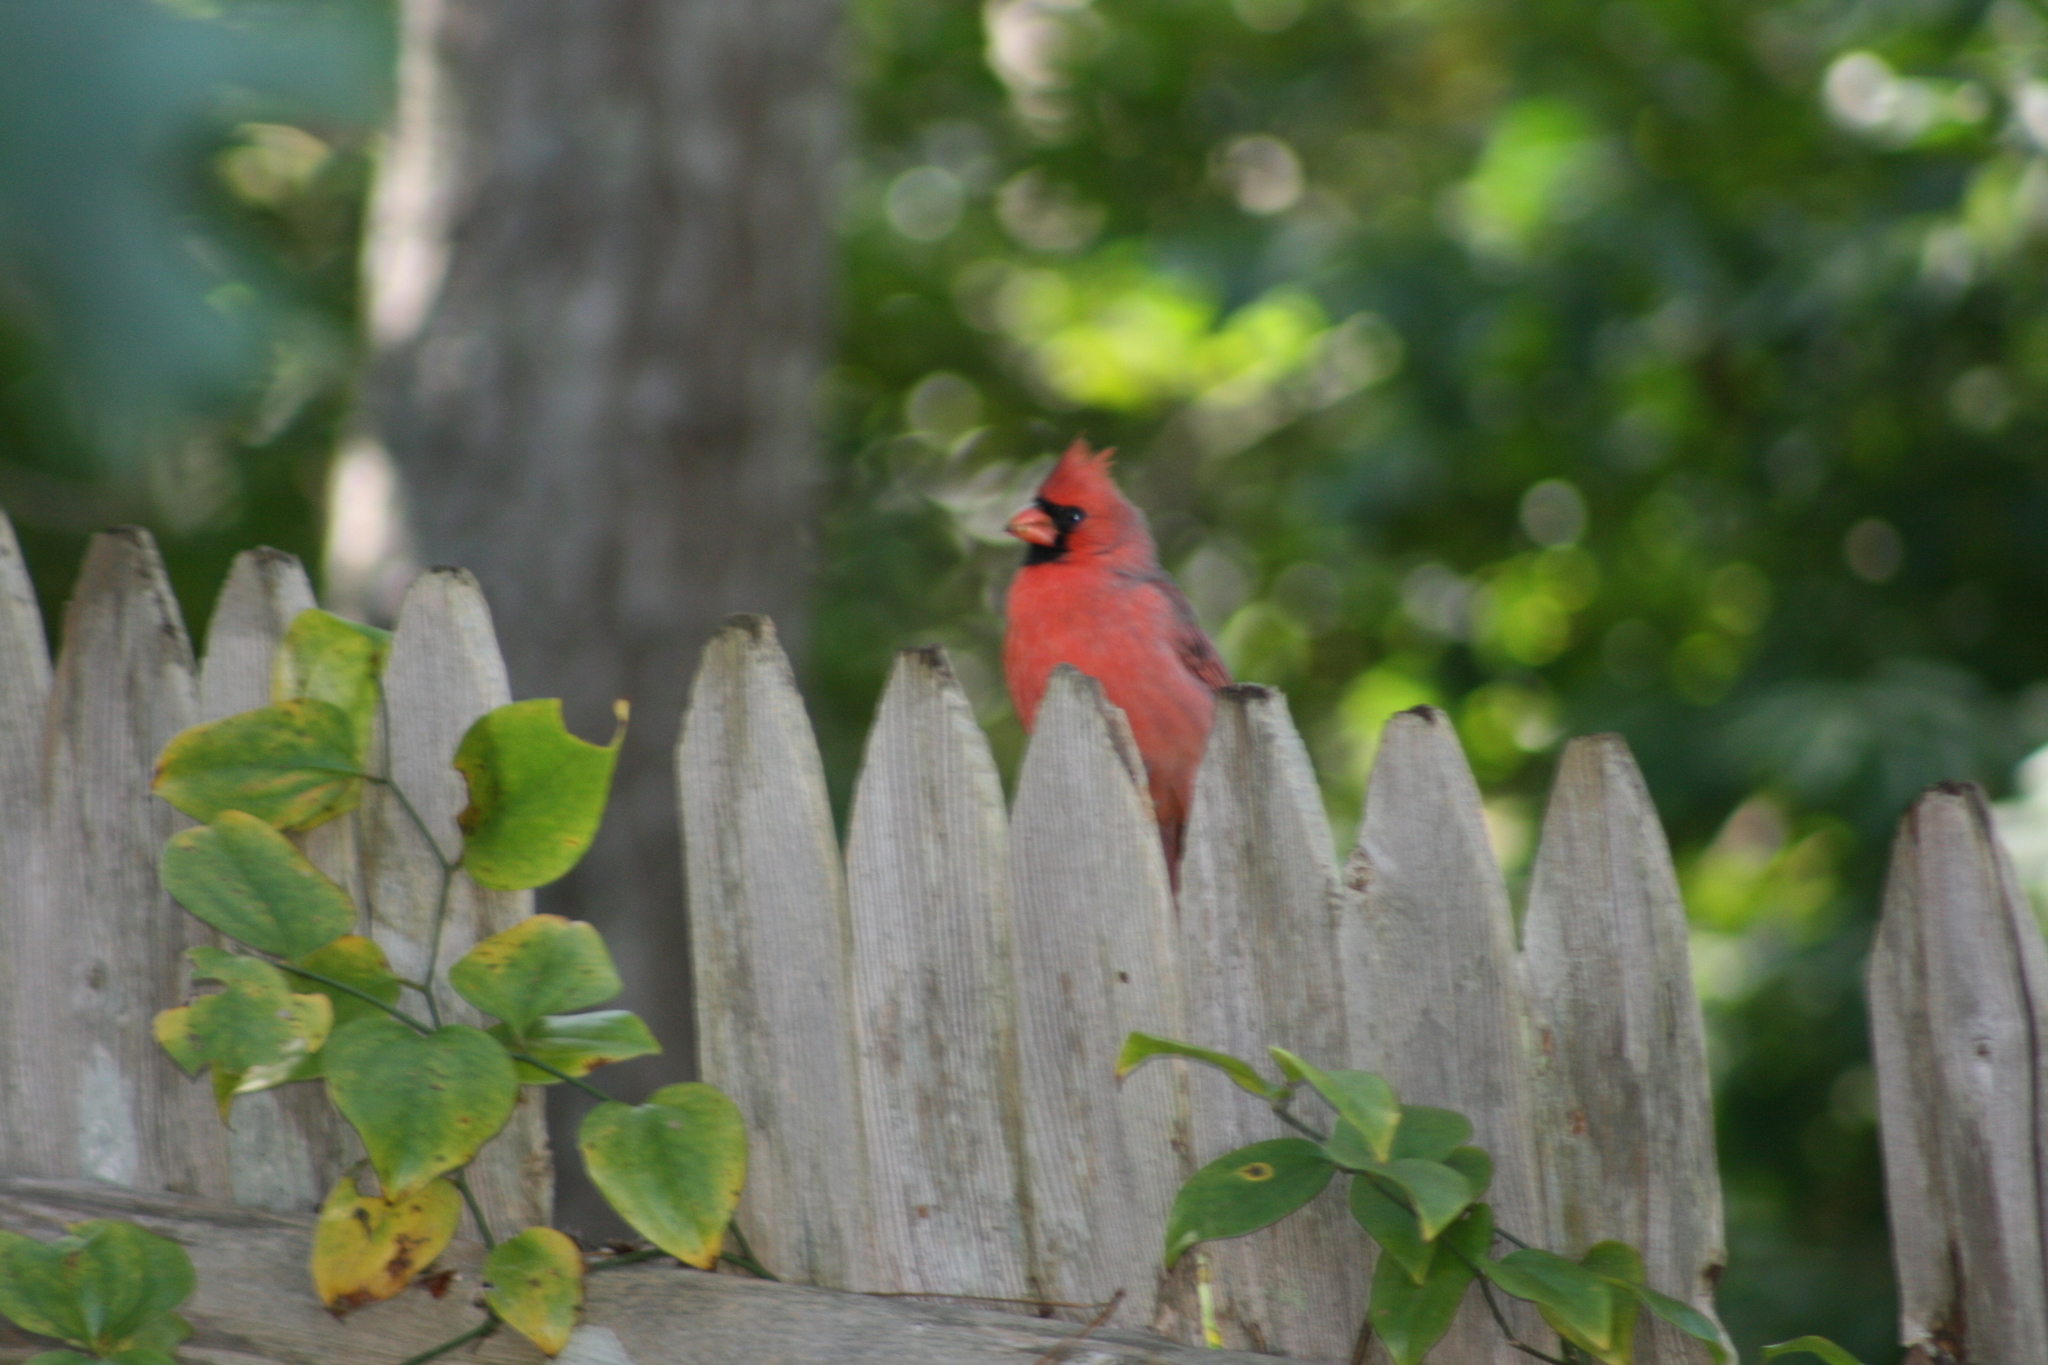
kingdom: Animalia
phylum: Chordata
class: Aves
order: Passeriformes
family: Cardinalidae
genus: Cardinalis
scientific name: Cardinalis cardinalis
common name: Northern cardinal
